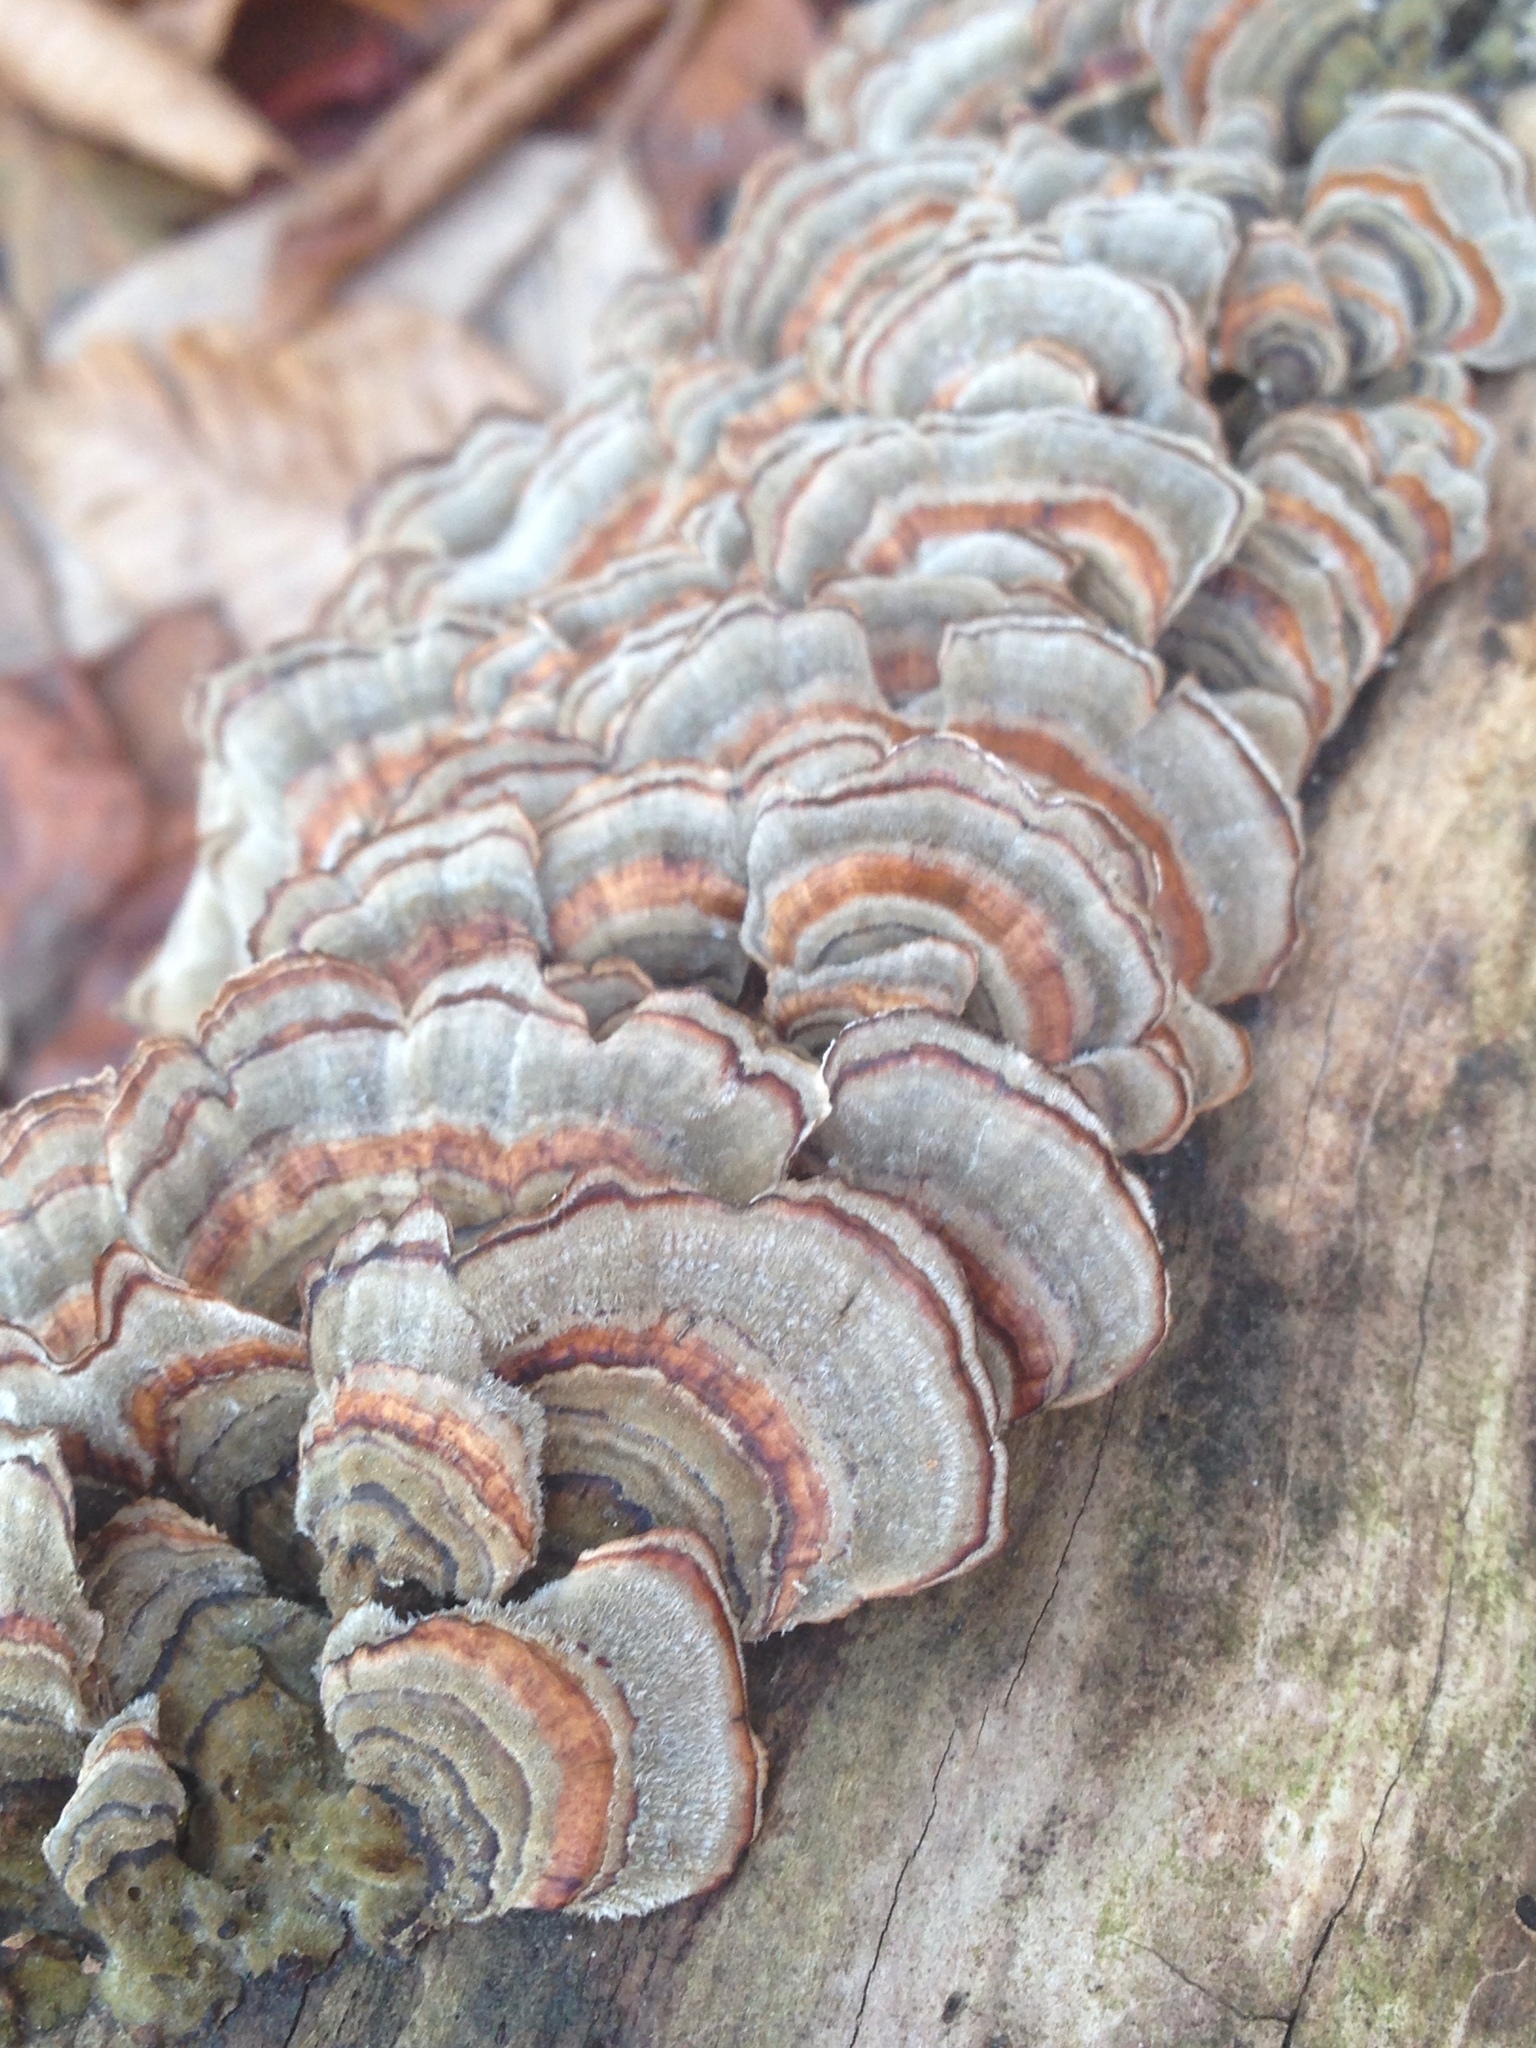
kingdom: Fungi
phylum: Basidiomycota
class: Agaricomycetes
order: Polyporales
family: Polyporaceae
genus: Trametes
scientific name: Trametes versicolor
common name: Turkeytail
